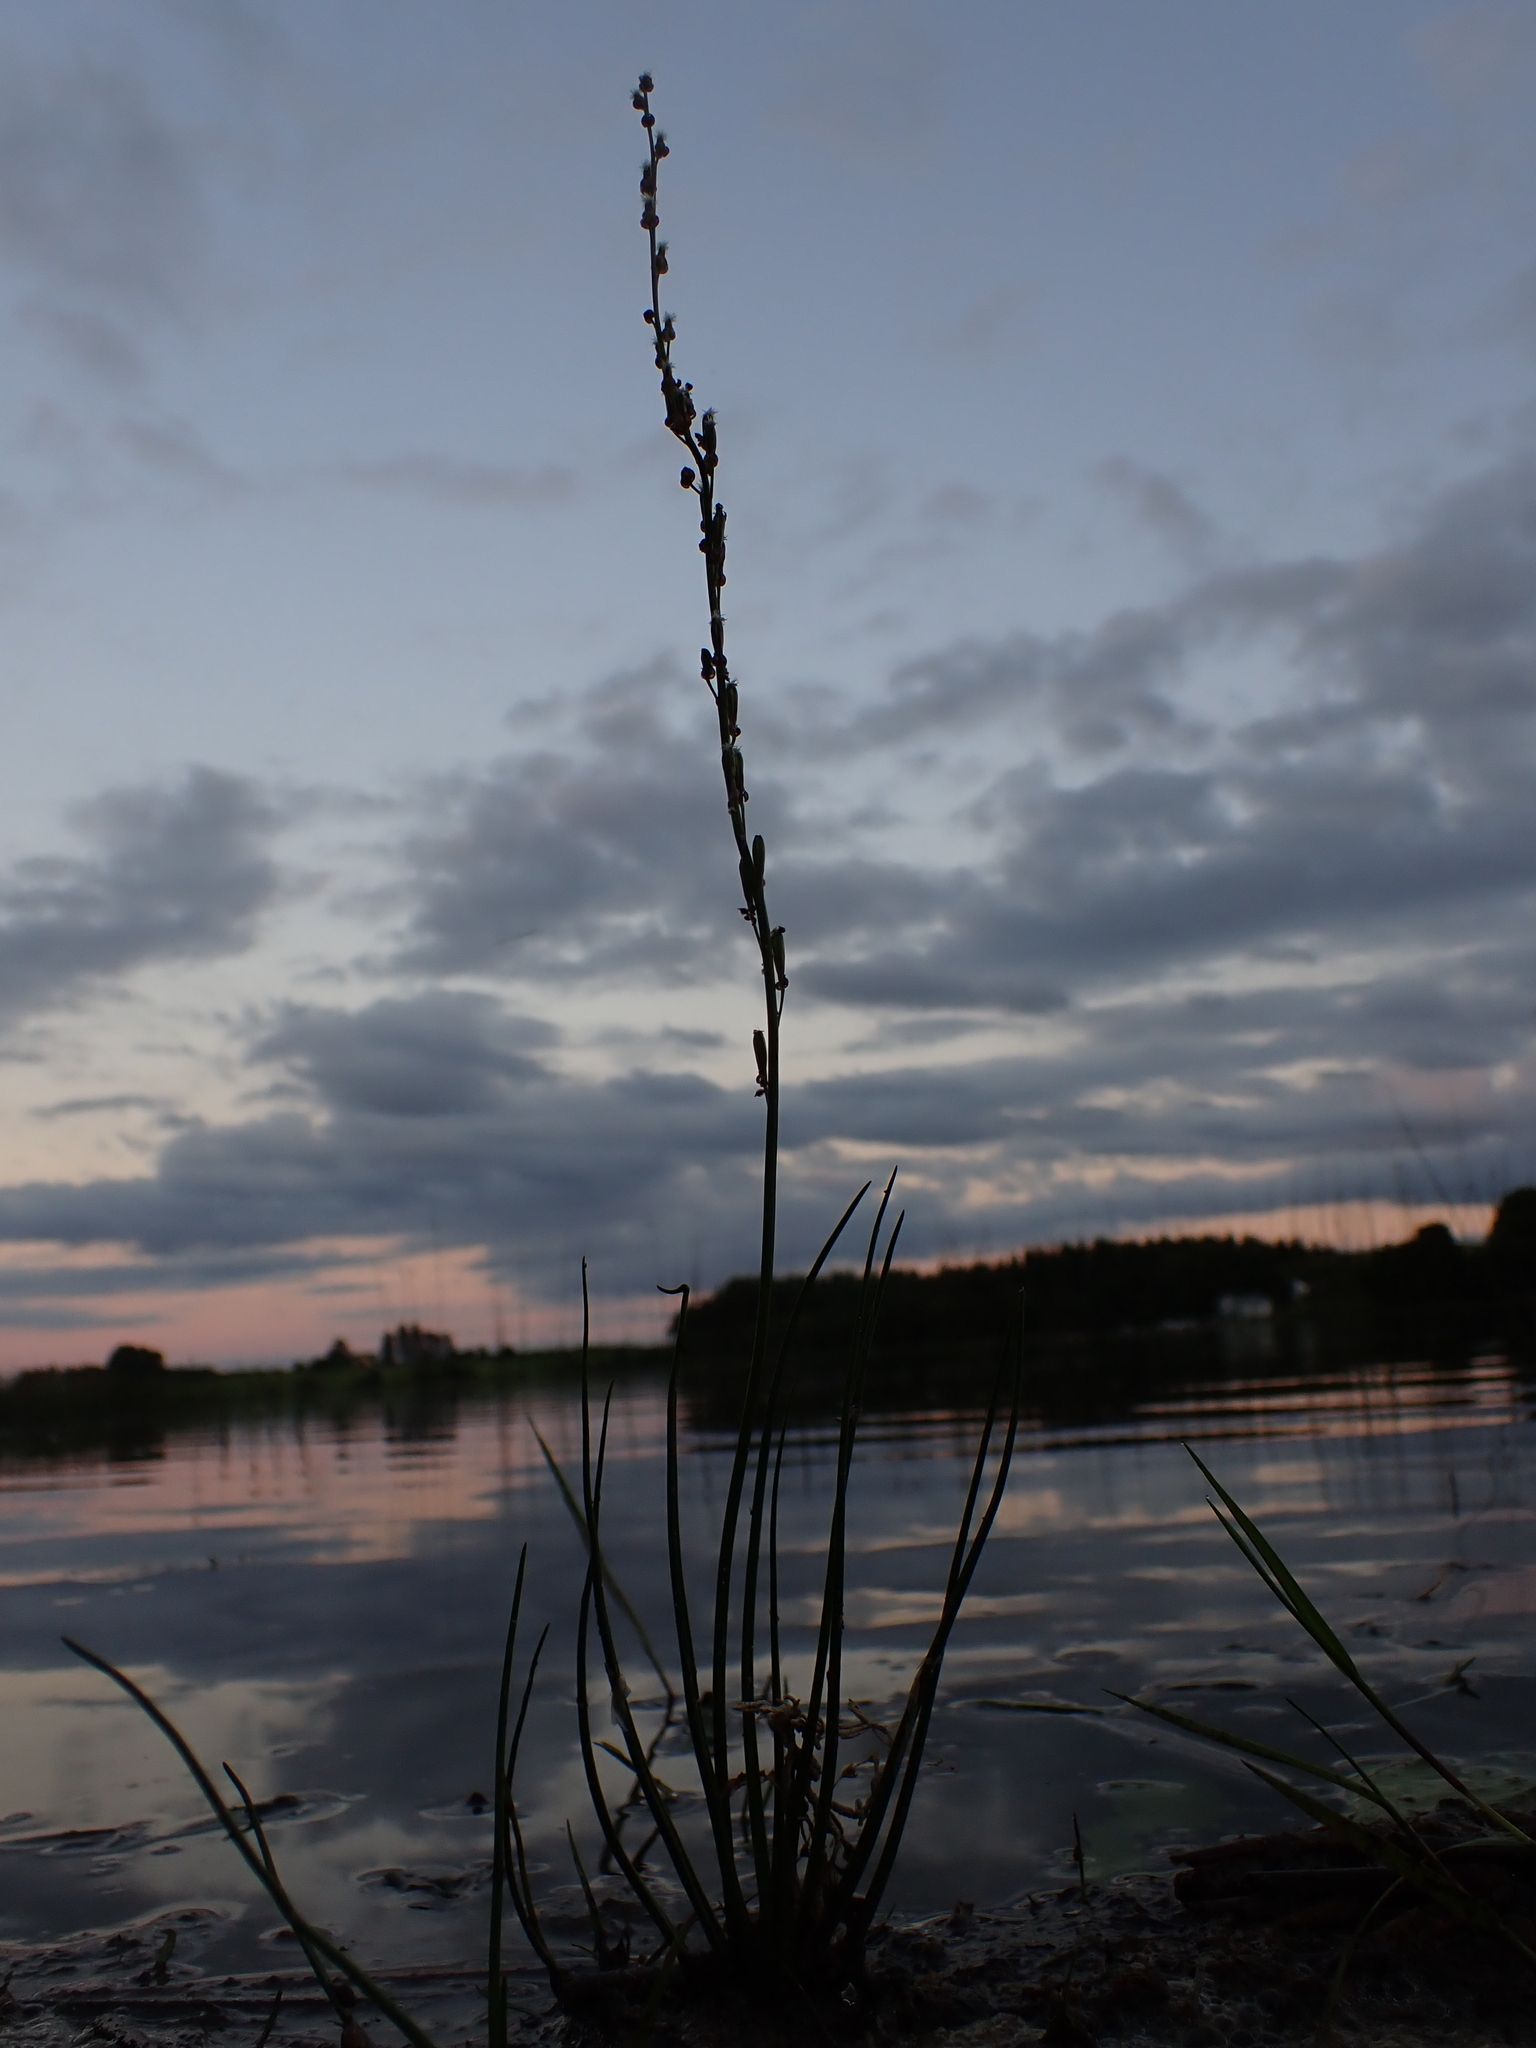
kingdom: Plantae
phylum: Tracheophyta
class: Liliopsida
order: Alismatales
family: Juncaginaceae
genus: Triglochin
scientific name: Triglochin palustris
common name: Marsh arrowgrass
